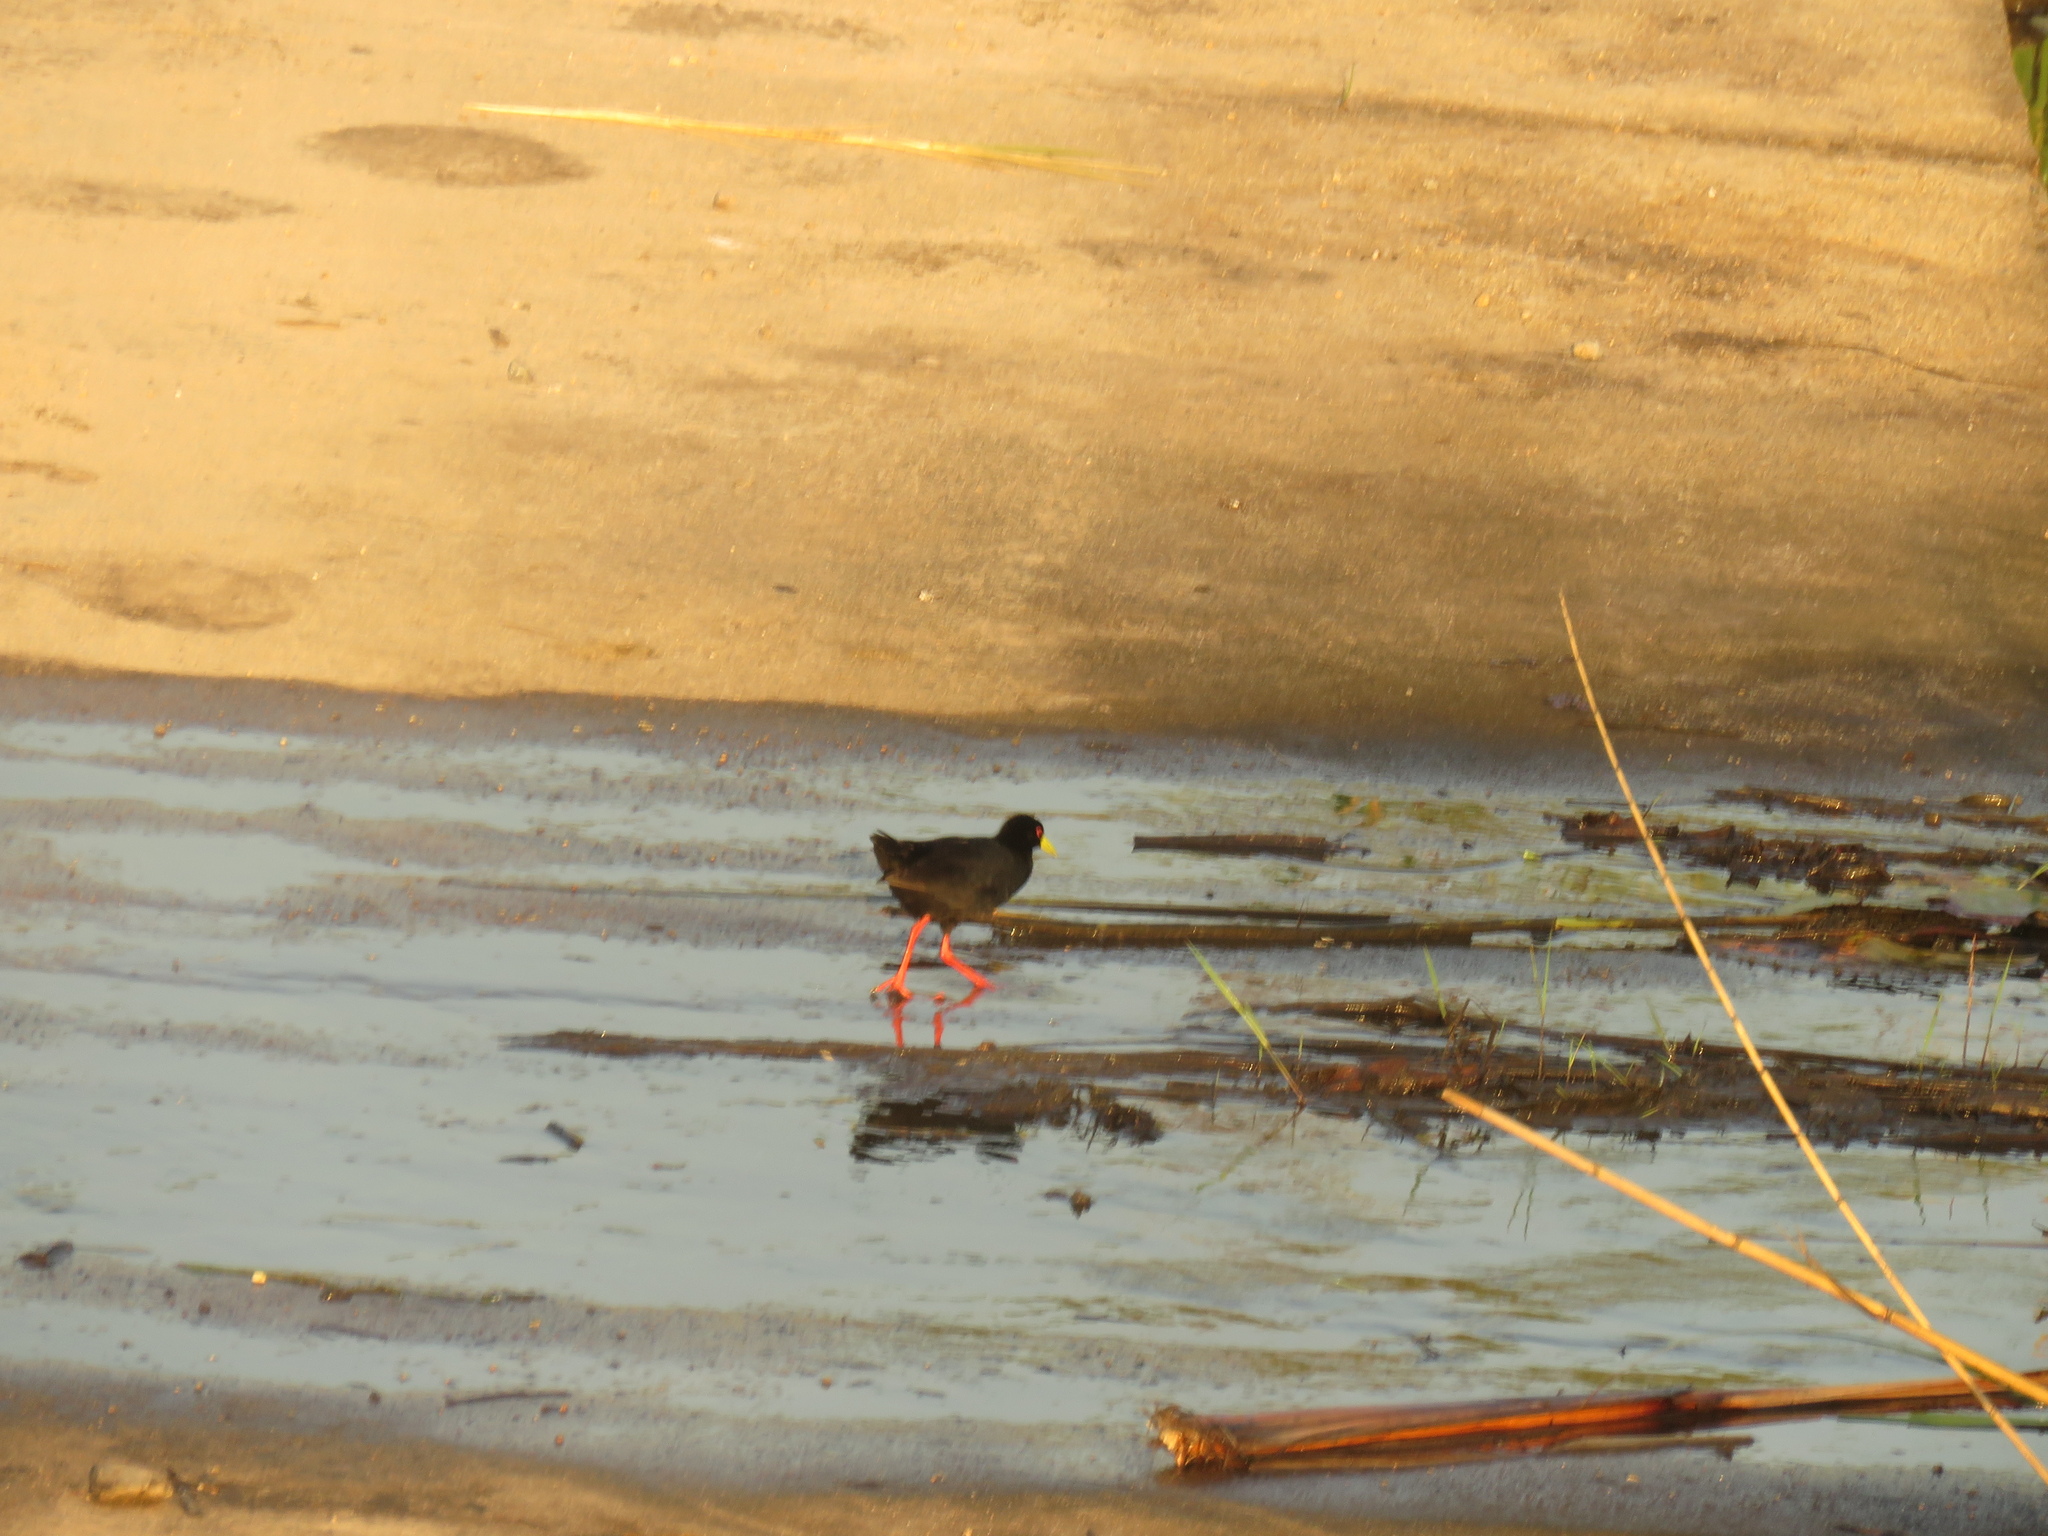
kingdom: Animalia
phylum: Chordata
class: Aves
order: Gruiformes
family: Rallidae
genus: Amaurornis
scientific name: Amaurornis flavirostra
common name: Black crake
